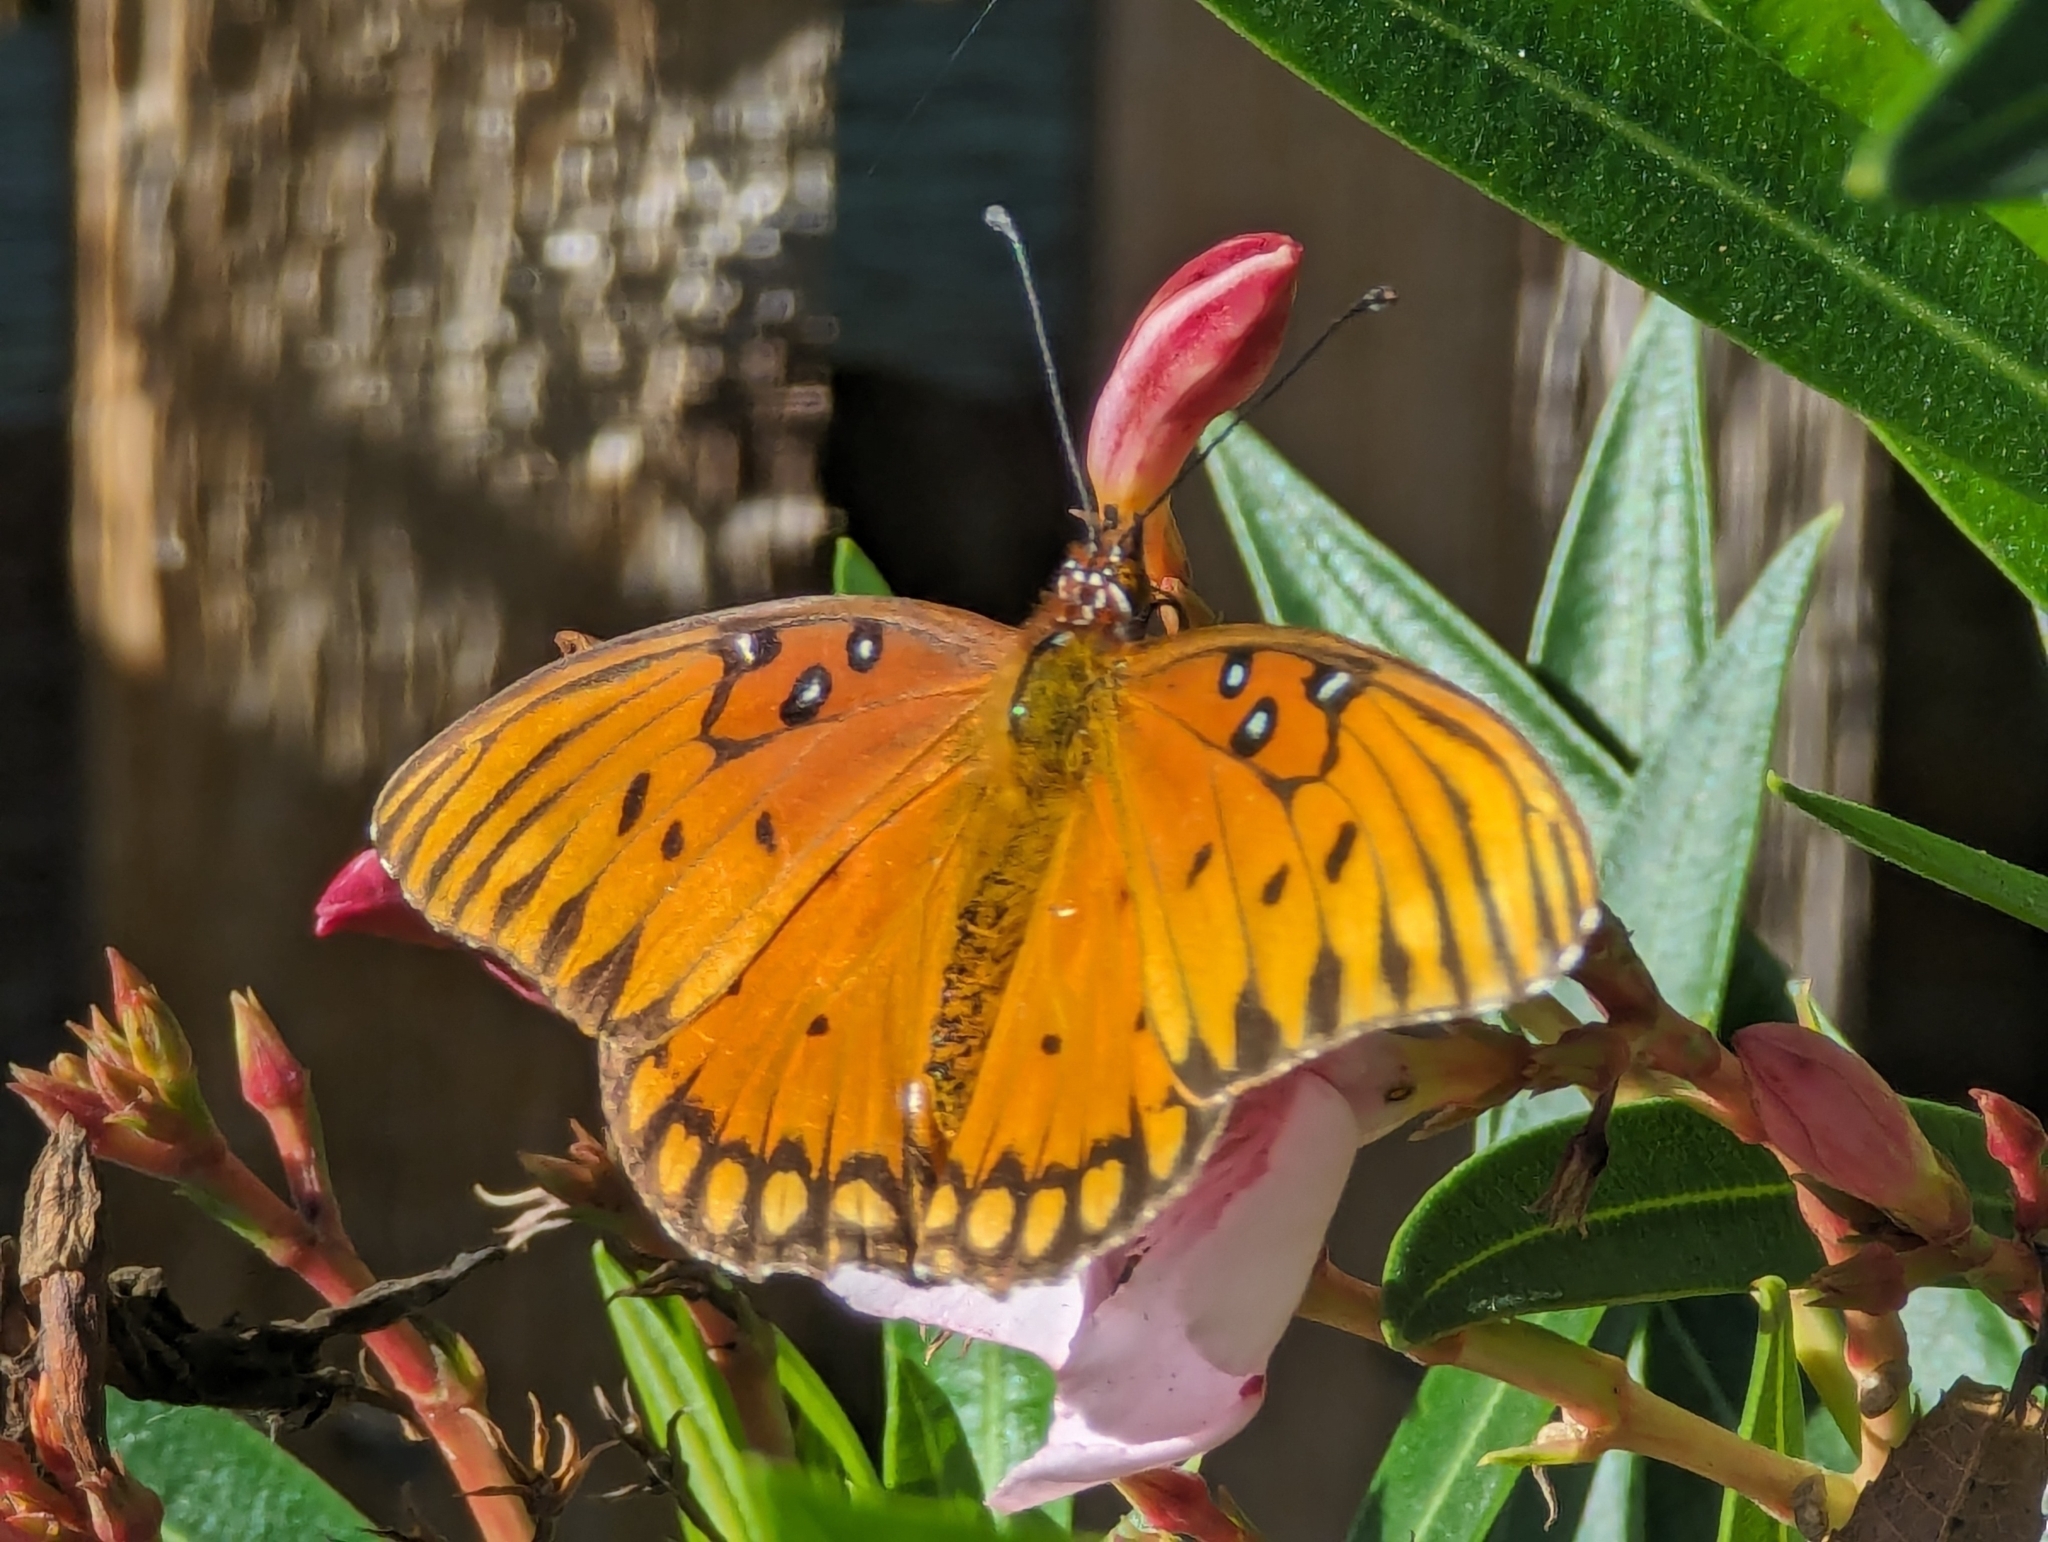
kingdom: Animalia
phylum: Arthropoda
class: Insecta
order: Lepidoptera
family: Nymphalidae
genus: Dione
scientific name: Dione vanillae
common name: Gulf fritillary
